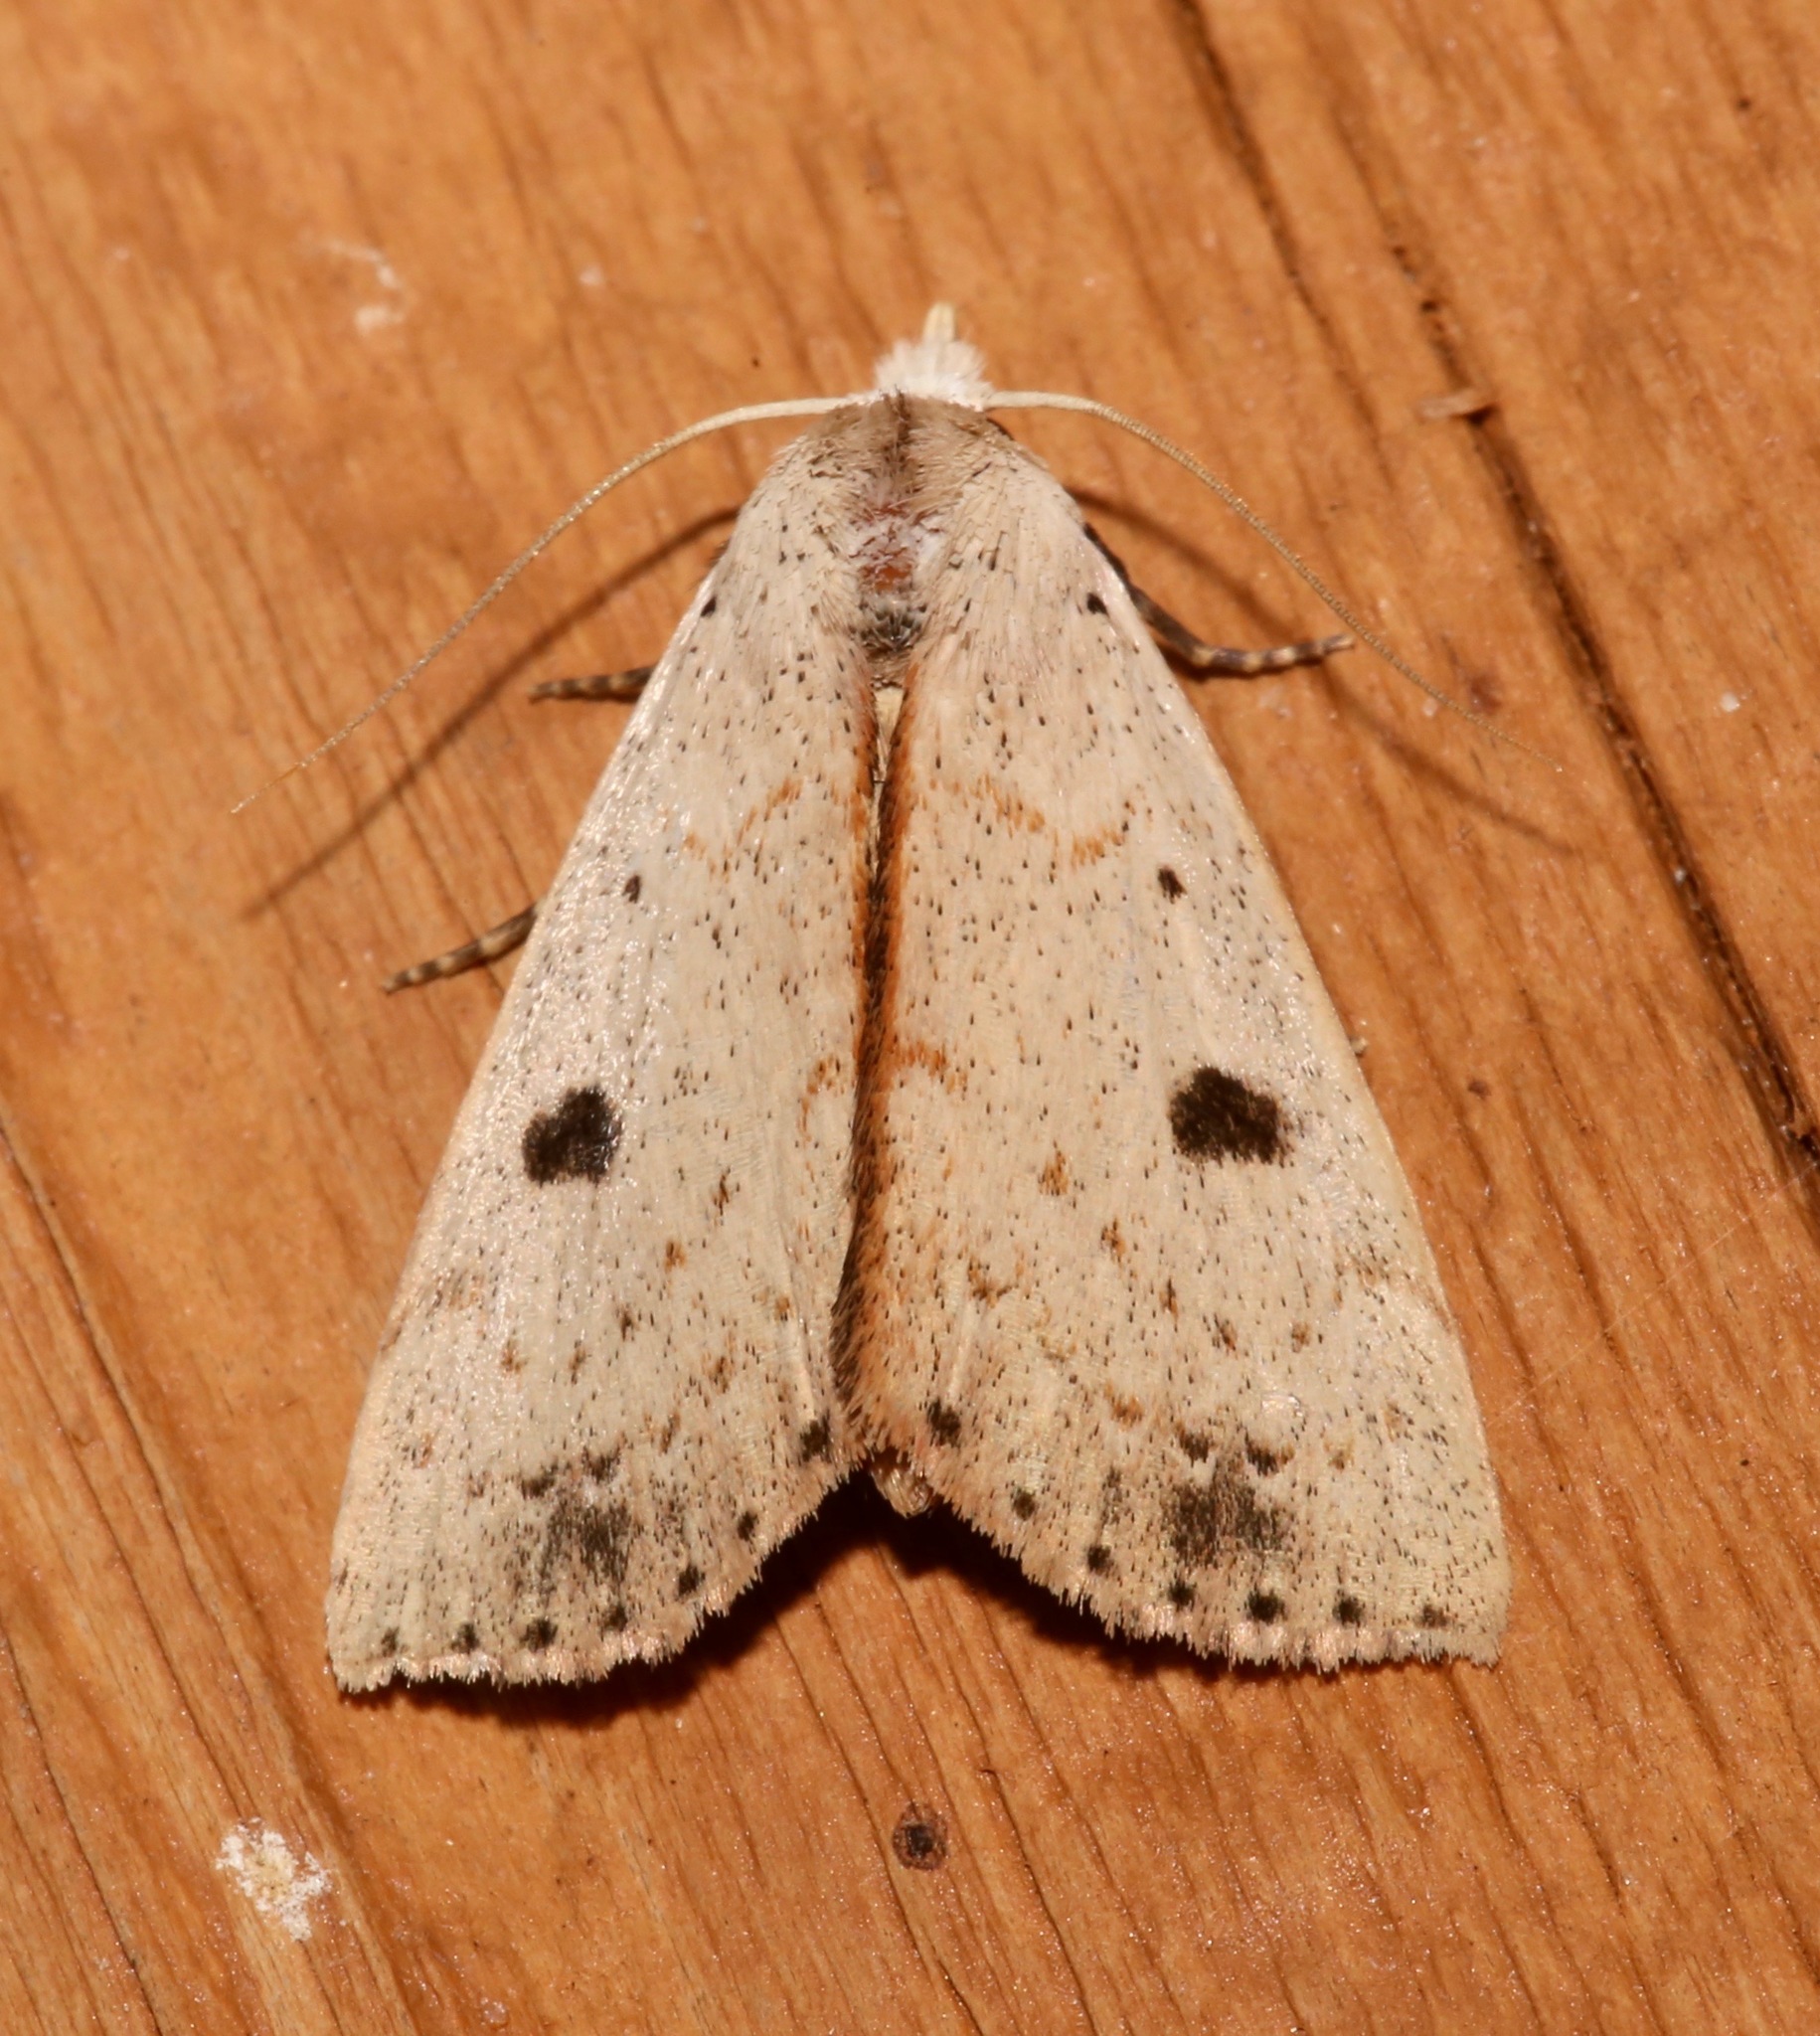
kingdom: Animalia
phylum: Arthropoda
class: Insecta
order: Lepidoptera
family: Erebidae
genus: Scolecocampa
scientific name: Scolecocampa liburna
